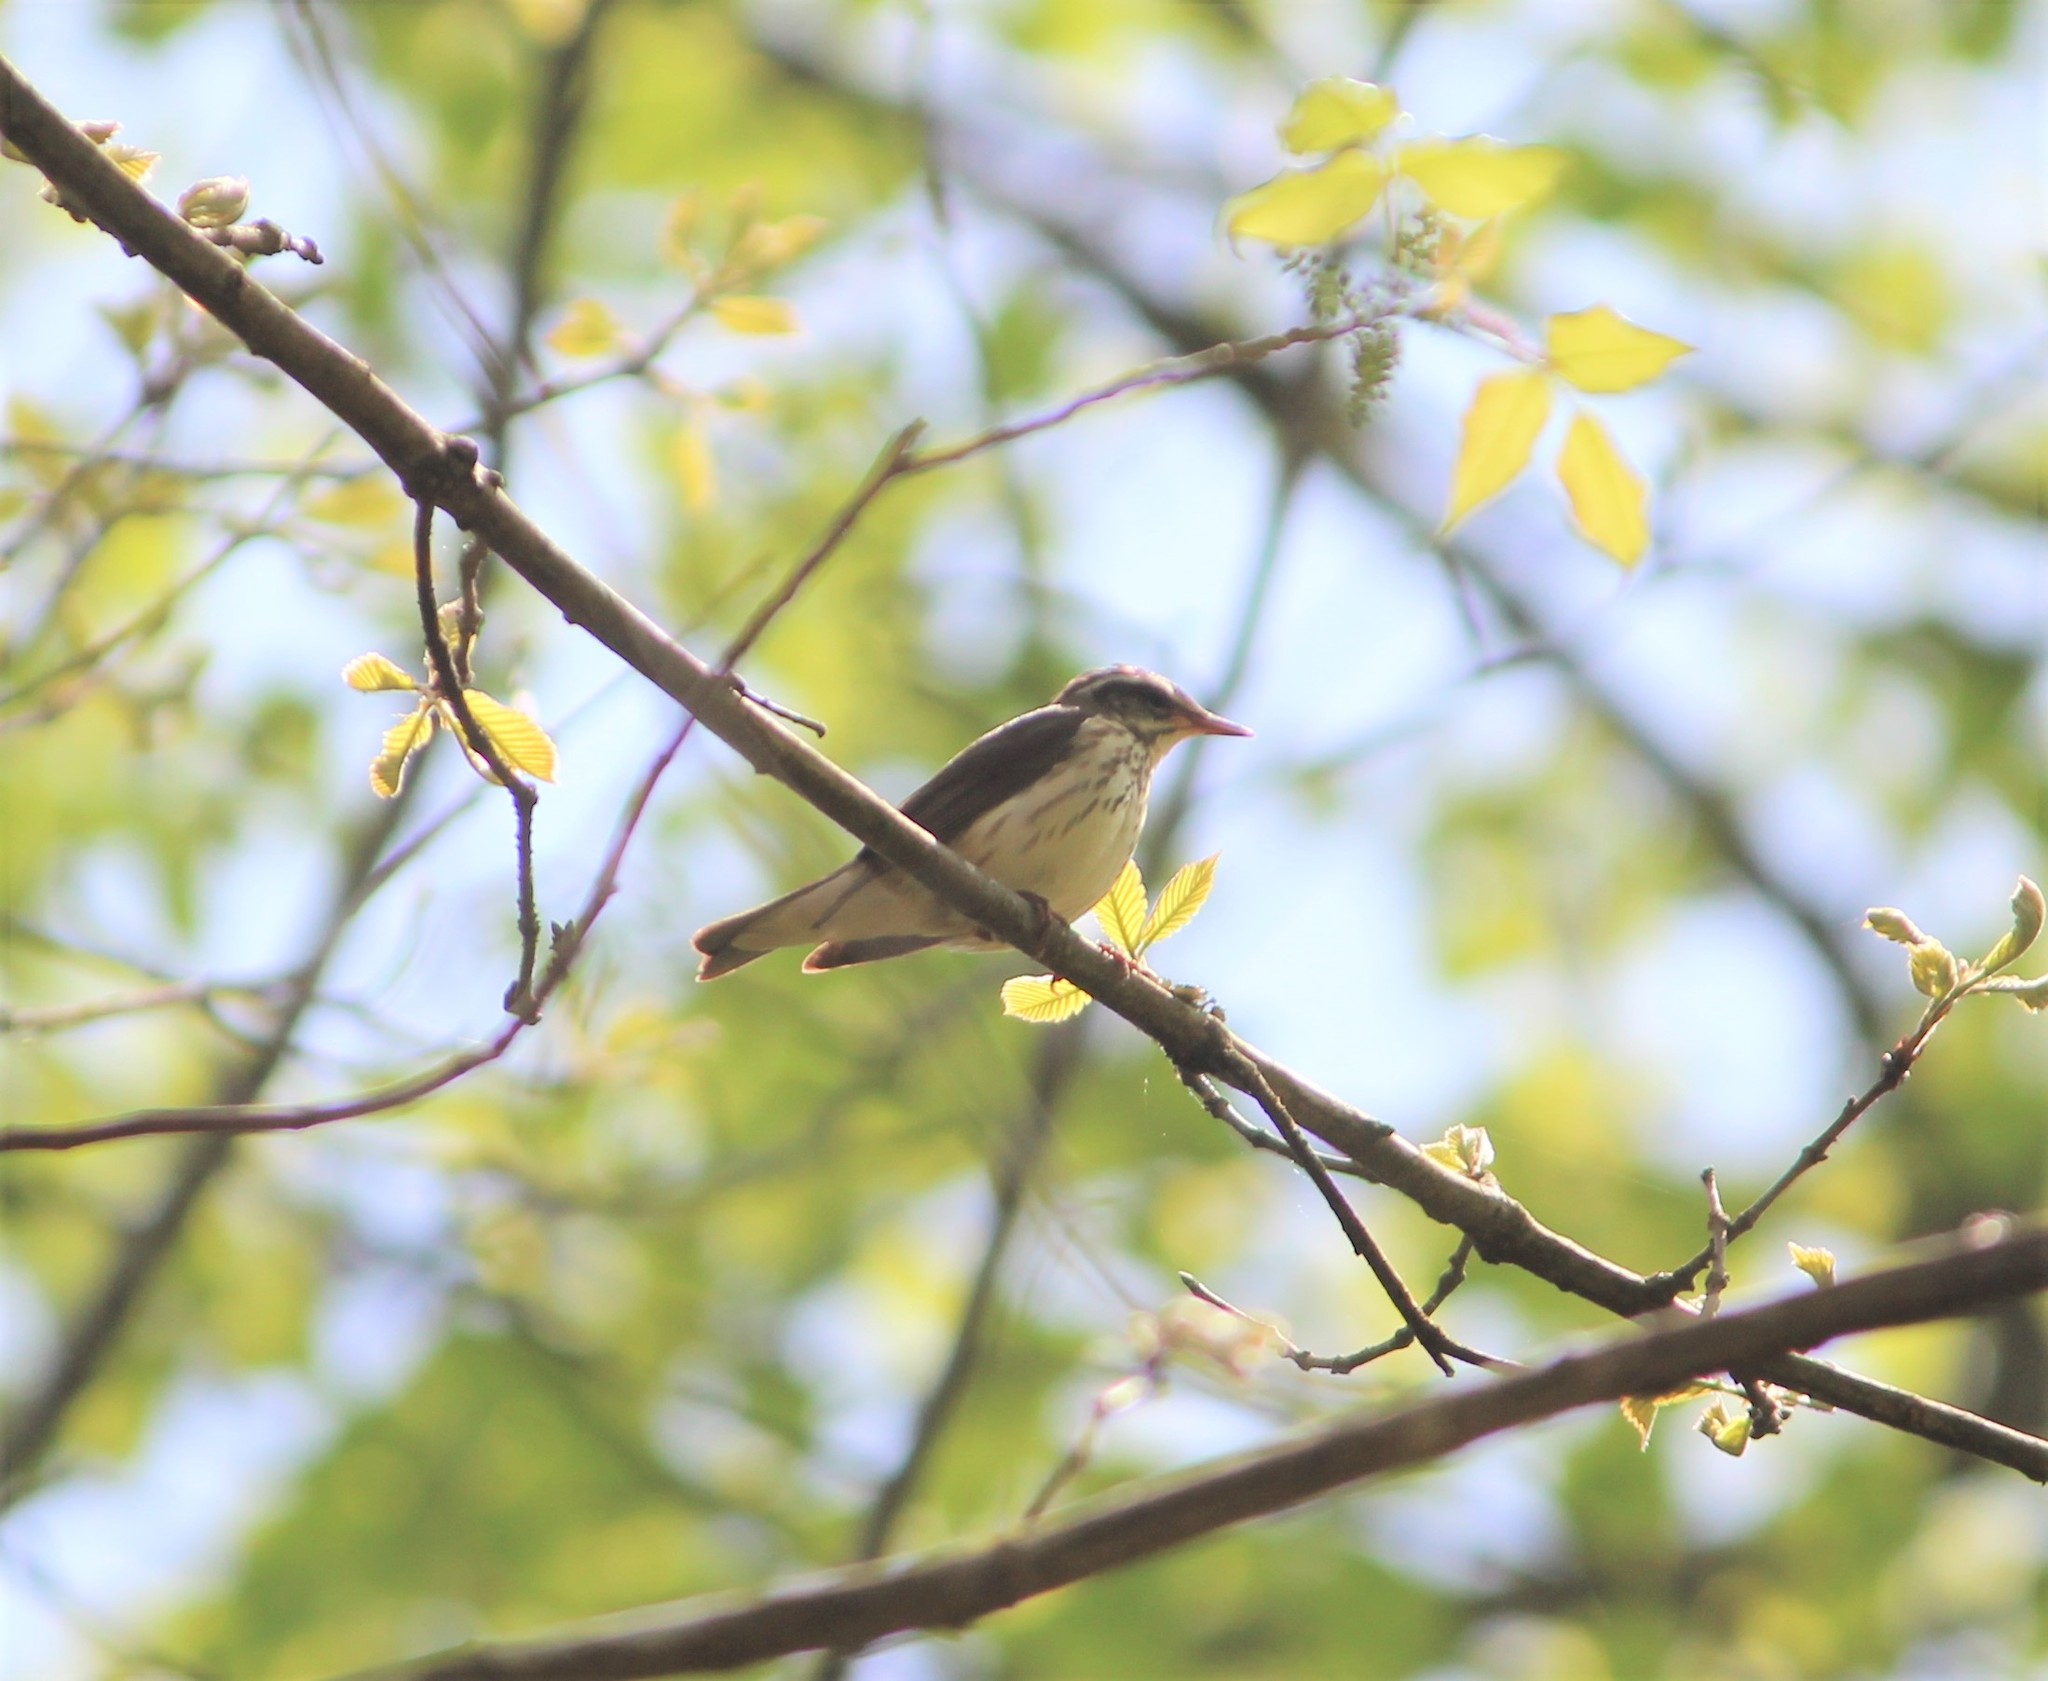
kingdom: Animalia
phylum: Chordata
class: Aves
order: Passeriformes
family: Parulidae
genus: Parkesia
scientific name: Parkesia motacilla
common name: Louisiana waterthrush
